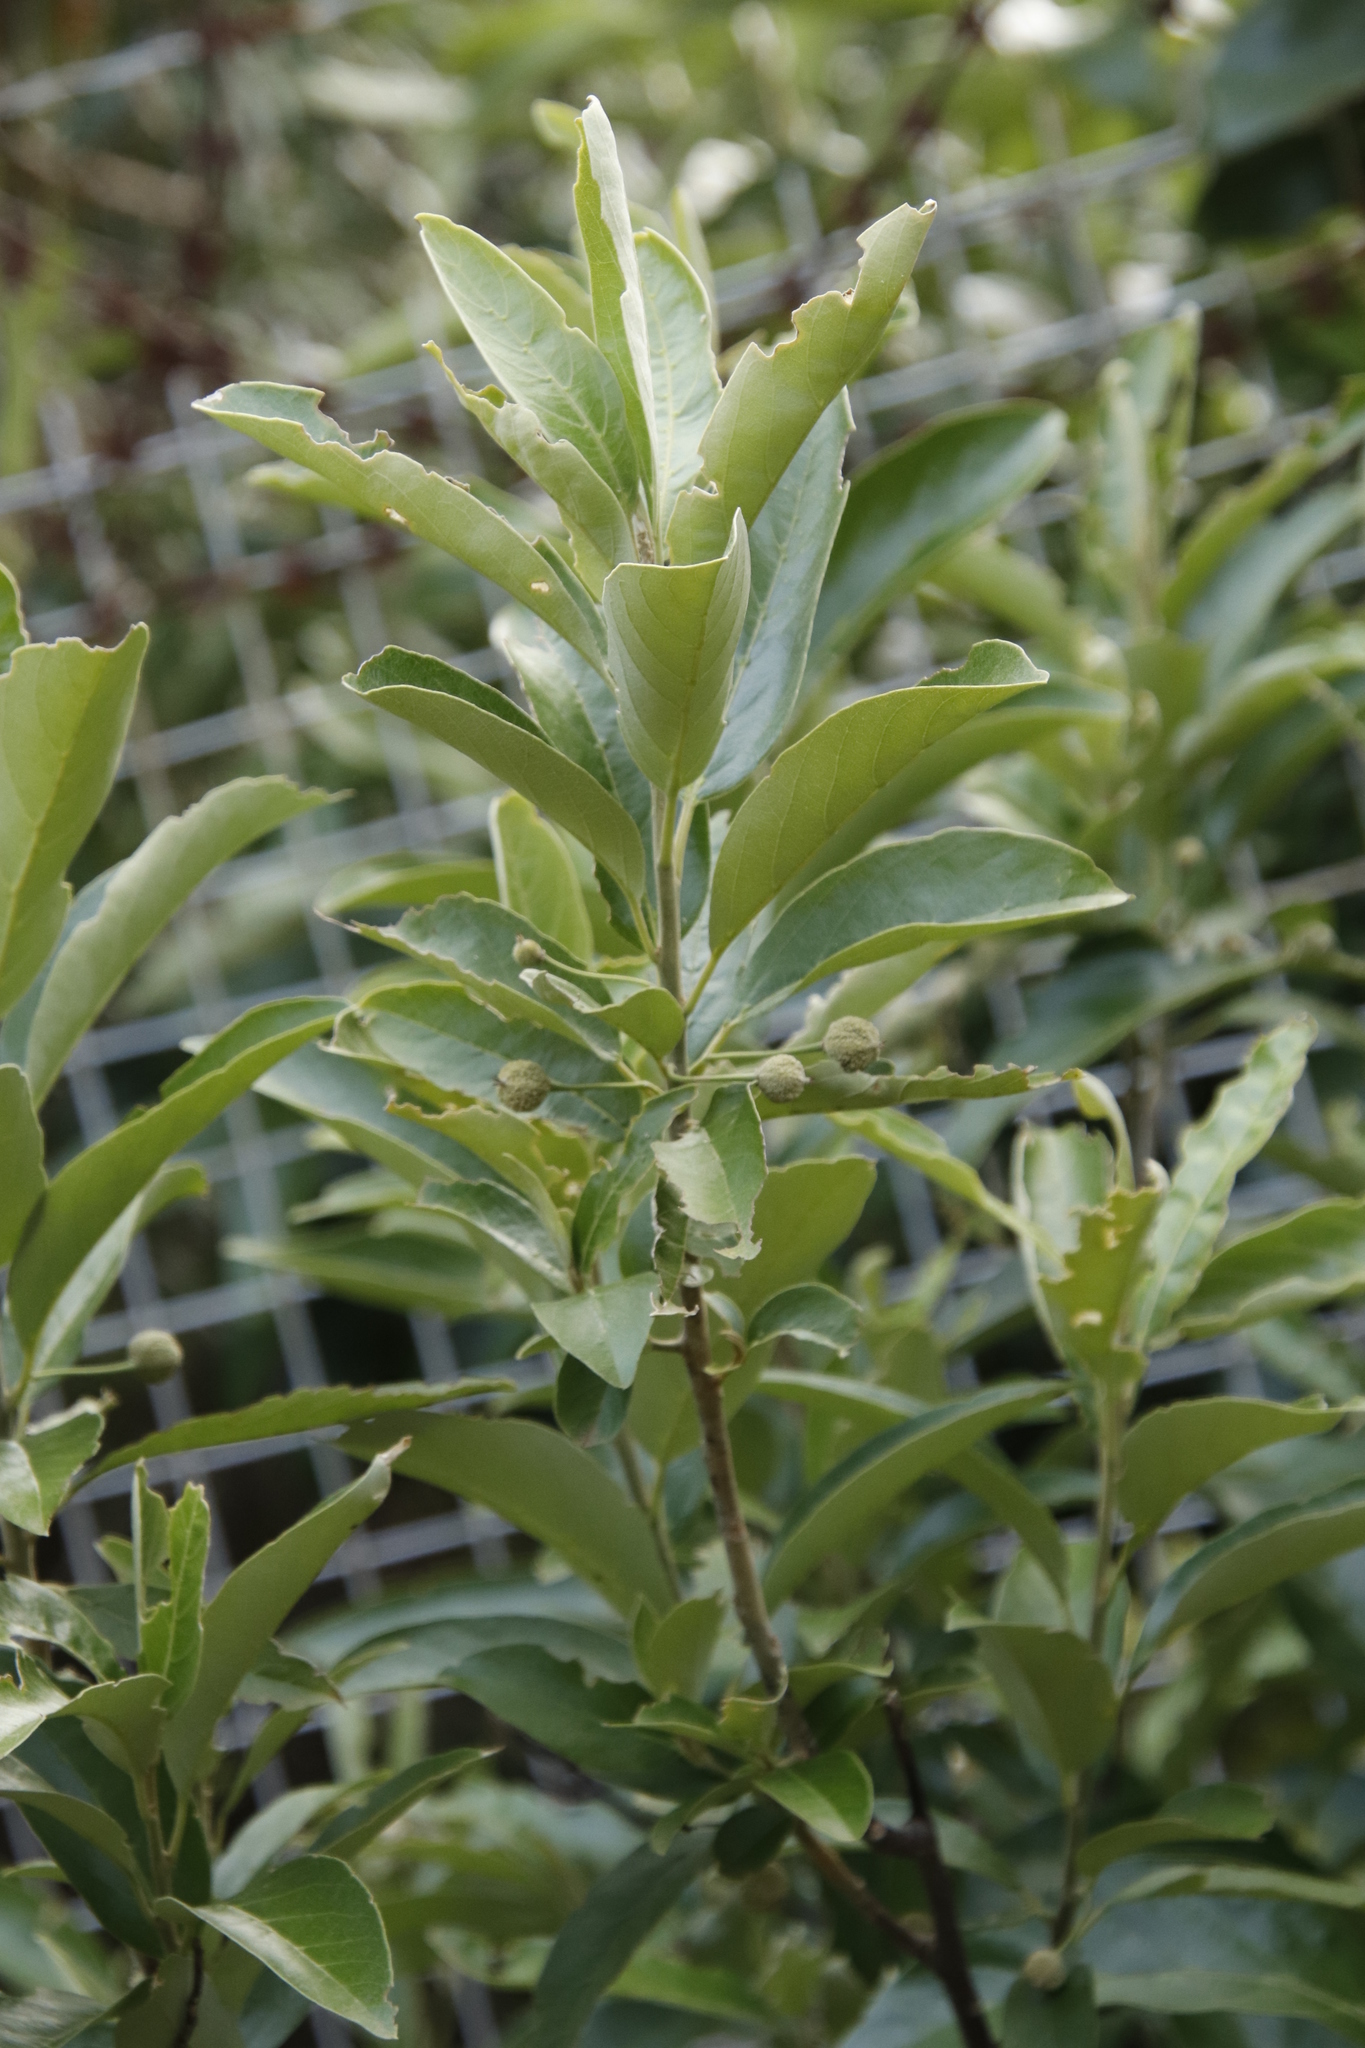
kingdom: Plantae
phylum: Tracheophyta
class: Magnoliopsida
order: Malpighiales
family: Achariaceae
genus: Kiggelaria
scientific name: Kiggelaria africana
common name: Wild peach
